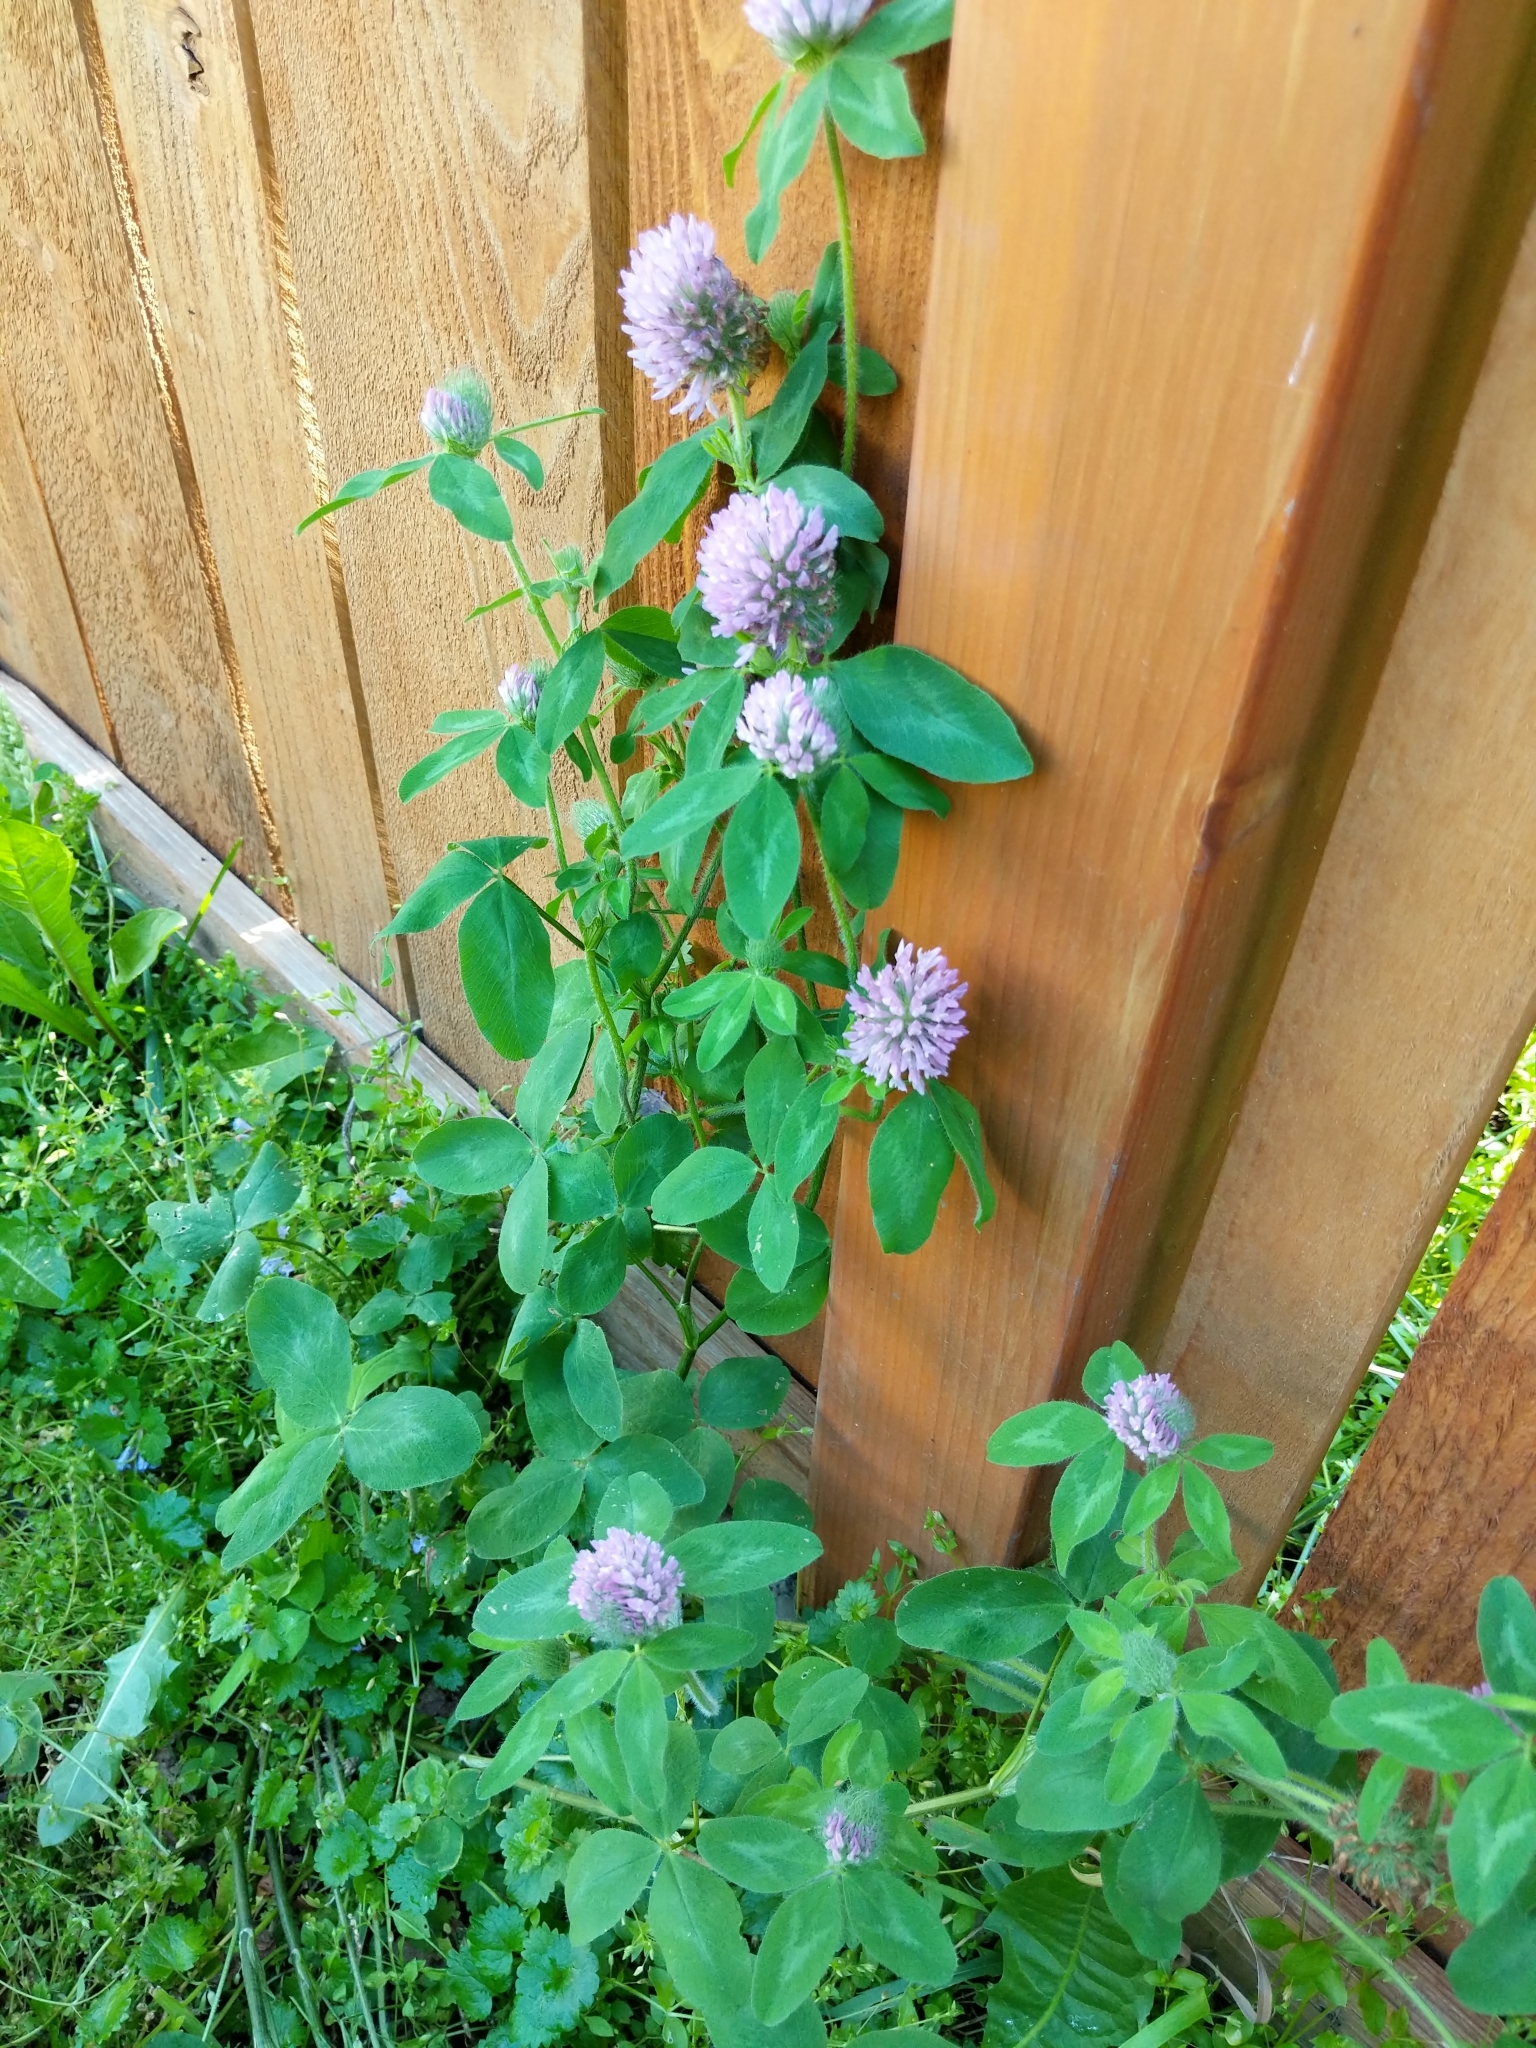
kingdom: Plantae
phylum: Tracheophyta
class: Magnoliopsida
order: Fabales
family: Fabaceae
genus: Trifolium
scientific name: Trifolium pratense
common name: Red clover
